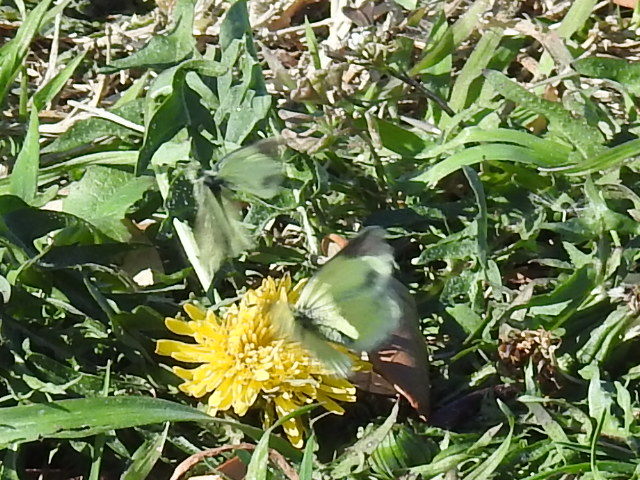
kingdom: Animalia
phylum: Arthropoda
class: Insecta
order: Lepidoptera
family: Pieridae
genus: Nathalis
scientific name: Nathalis iole
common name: Dainty sulphur
